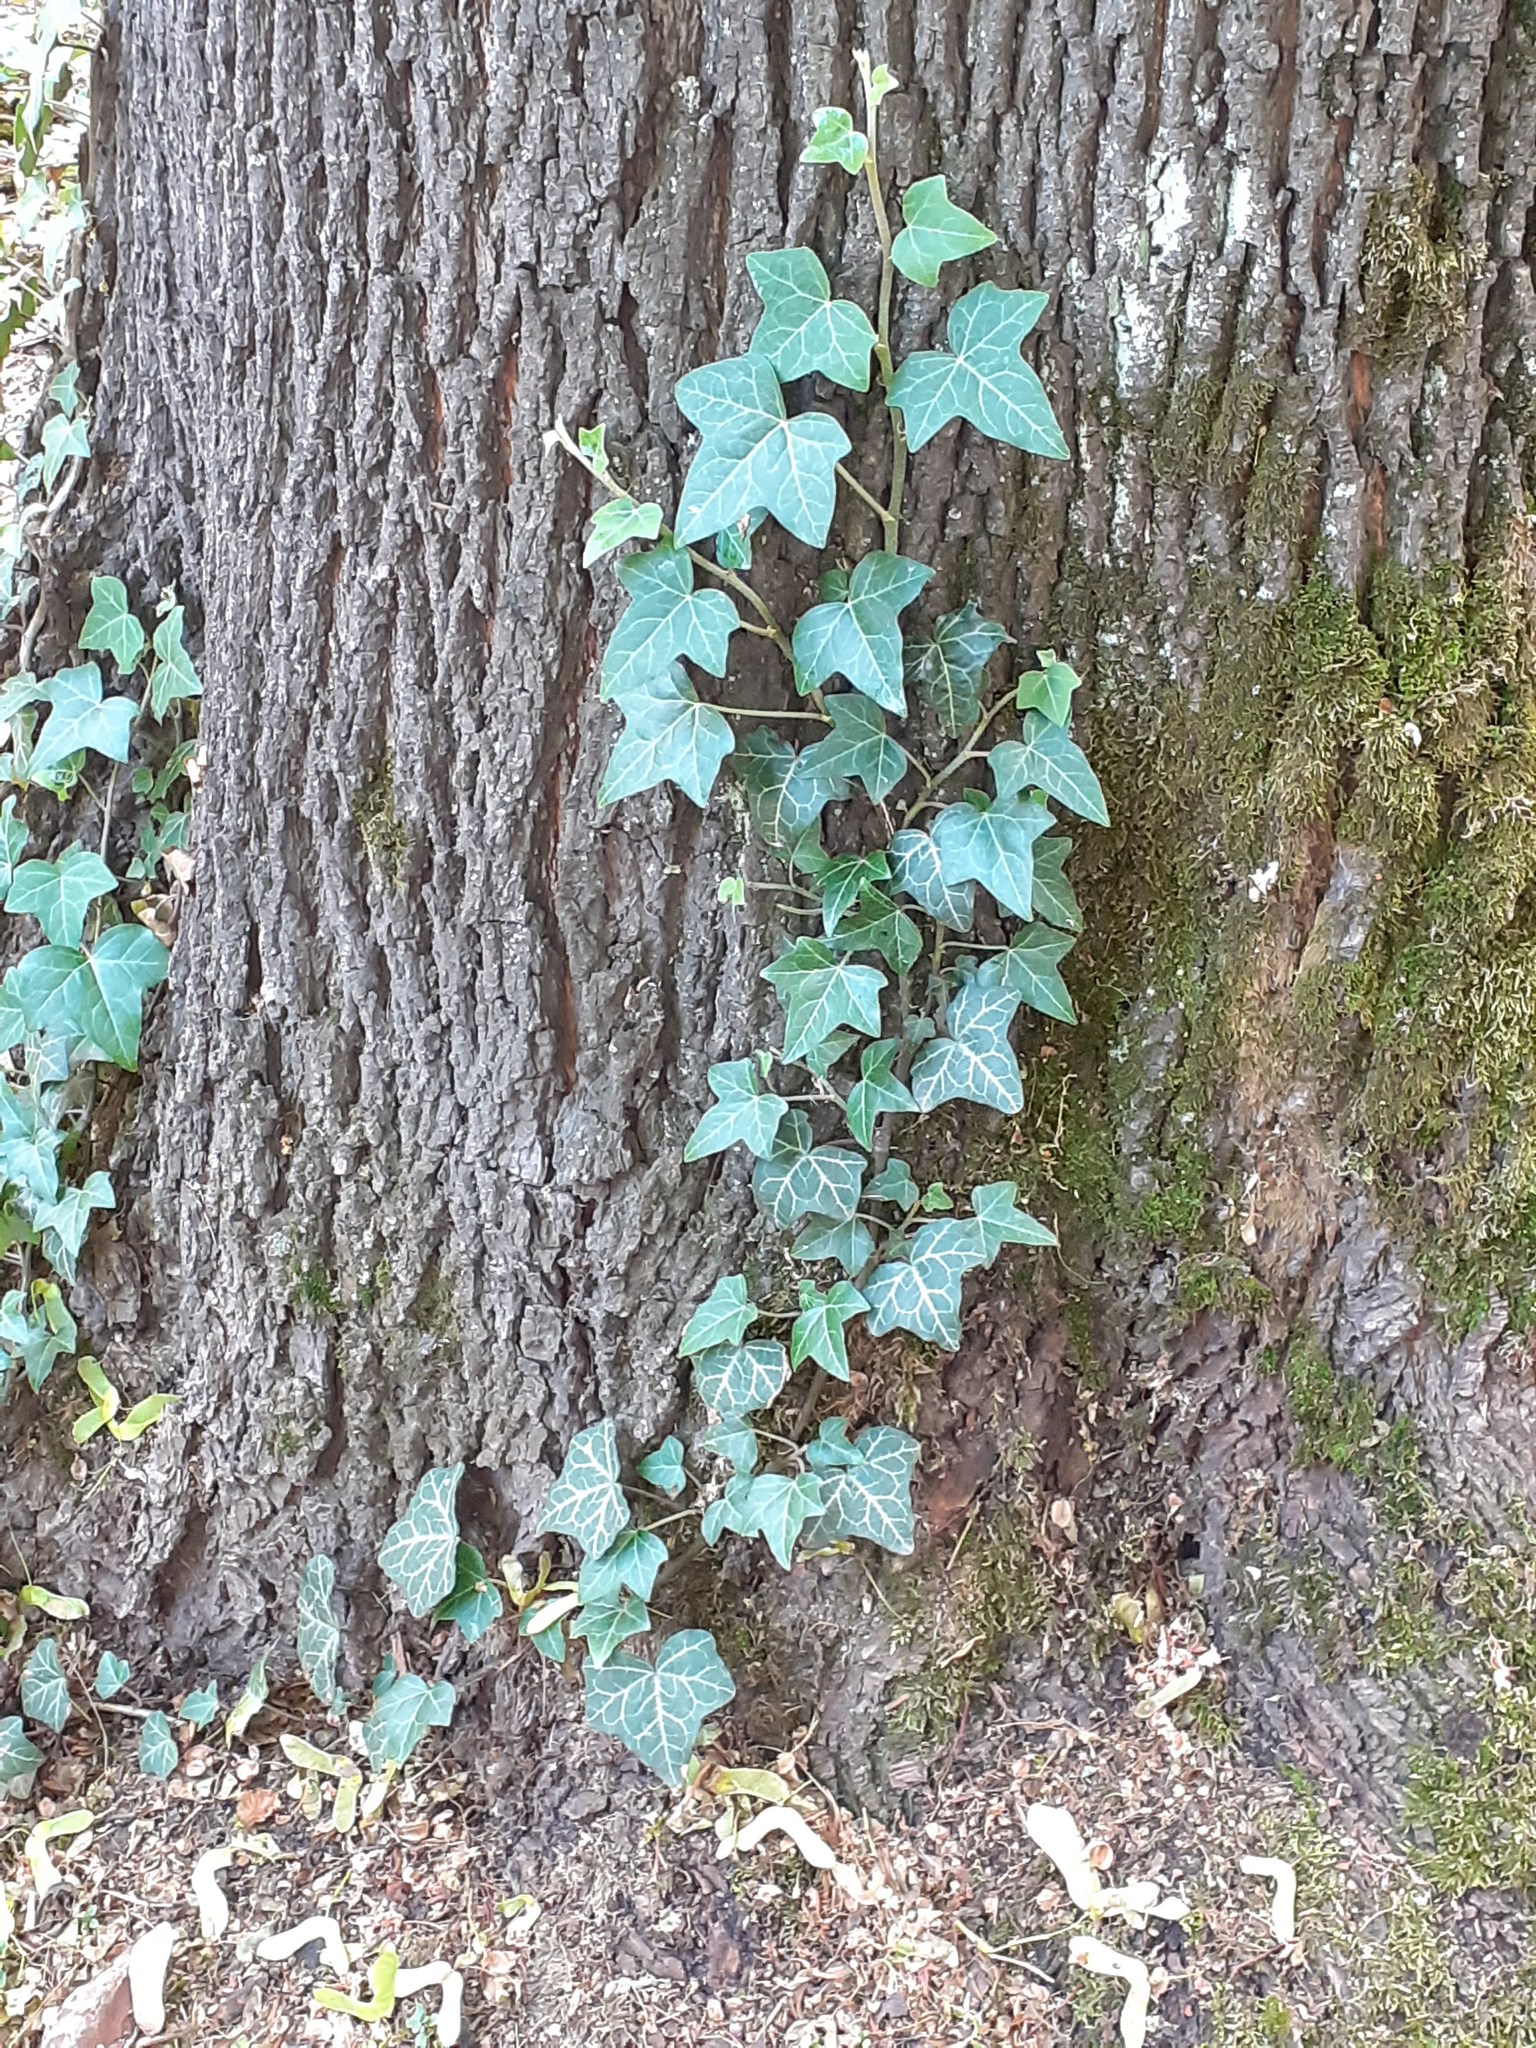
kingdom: Plantae
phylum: Tracheophyta
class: Magnoliopsida
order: Apiales
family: Araliaceae
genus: Hedera
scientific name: Hedera helix
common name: Ivy
